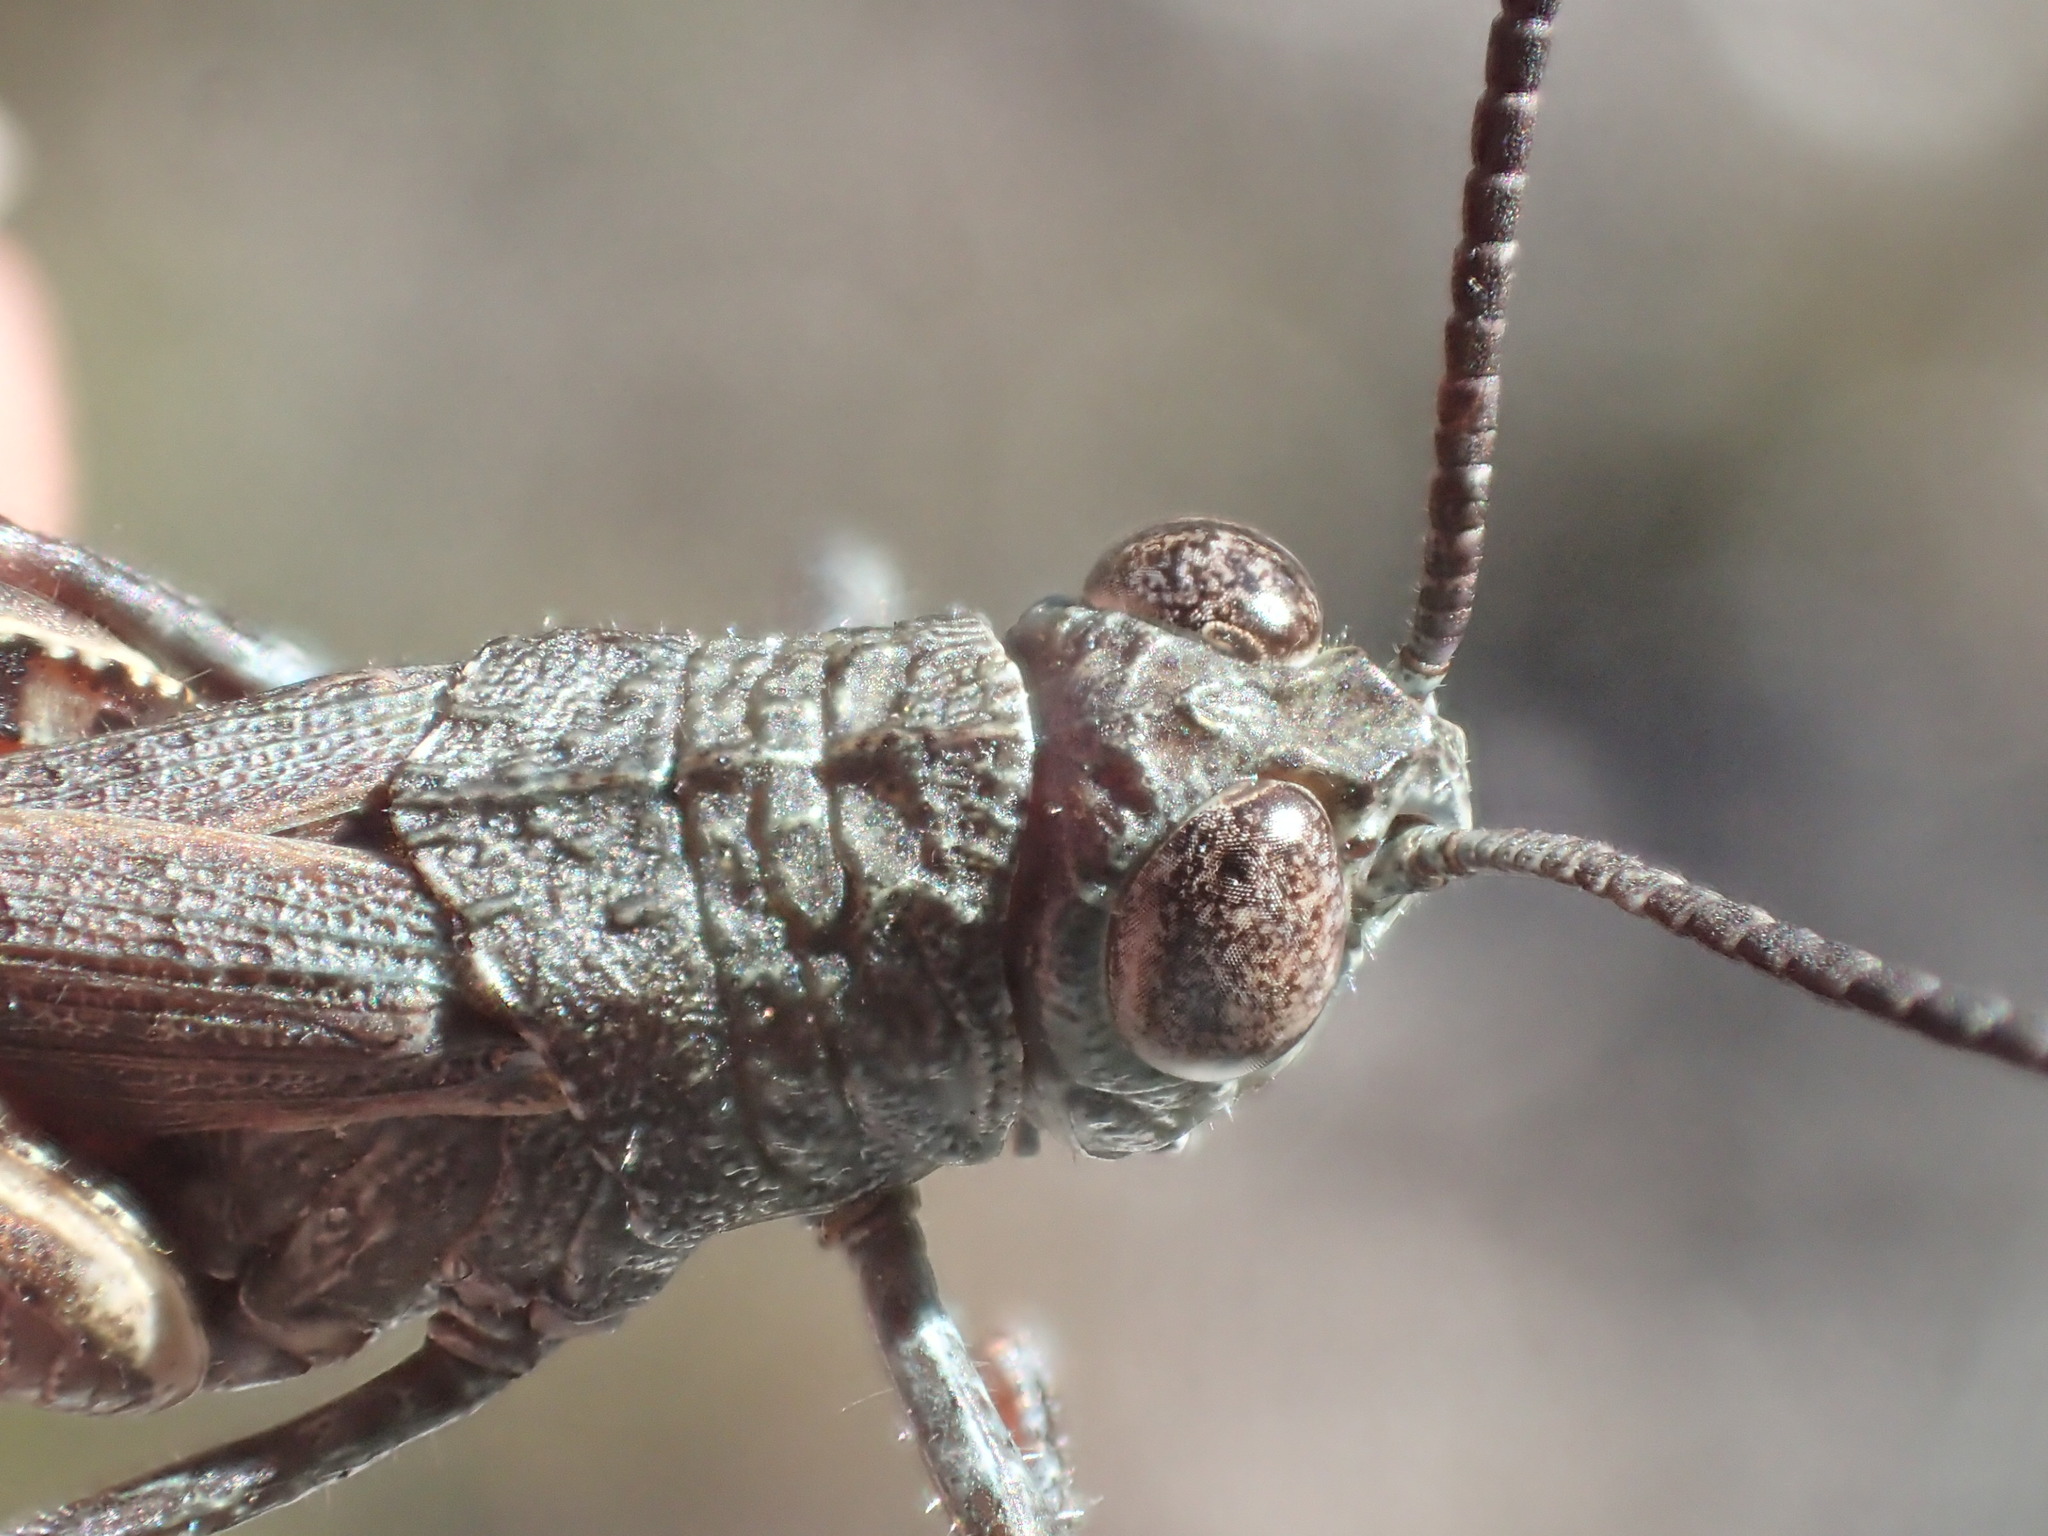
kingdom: Animalia
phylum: Arthropoda
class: Insecta
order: Orthoptera
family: Acrididae
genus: Cirphula
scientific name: Cirphula pyrrhocnemis
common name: Variable cirphula
